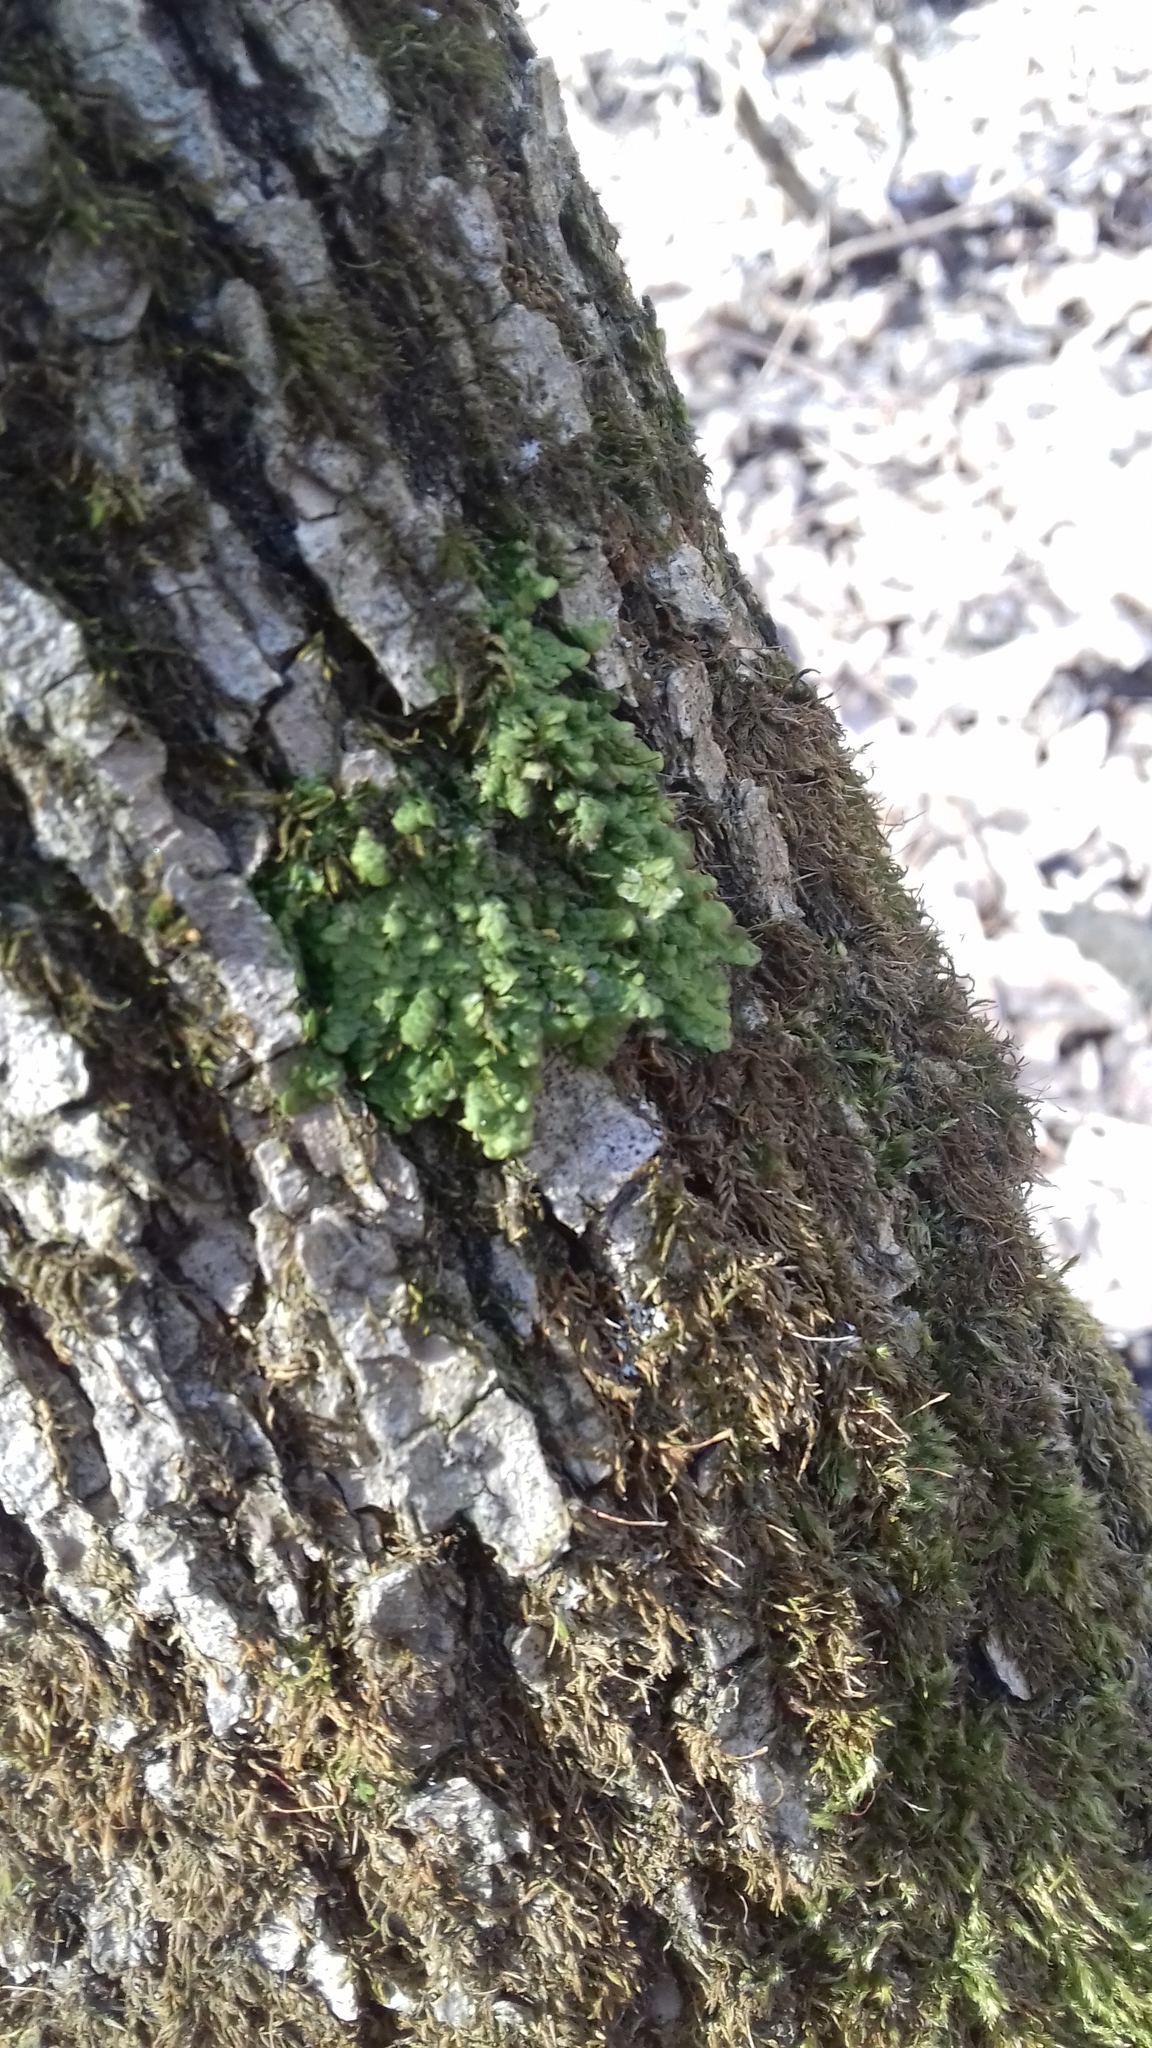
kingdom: Plantae
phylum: Marchantiophyta
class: Jungermanniopsida
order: Porellales
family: Radulaceae
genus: Radula
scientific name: Radula complanata
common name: Flat-leaved scalewort
